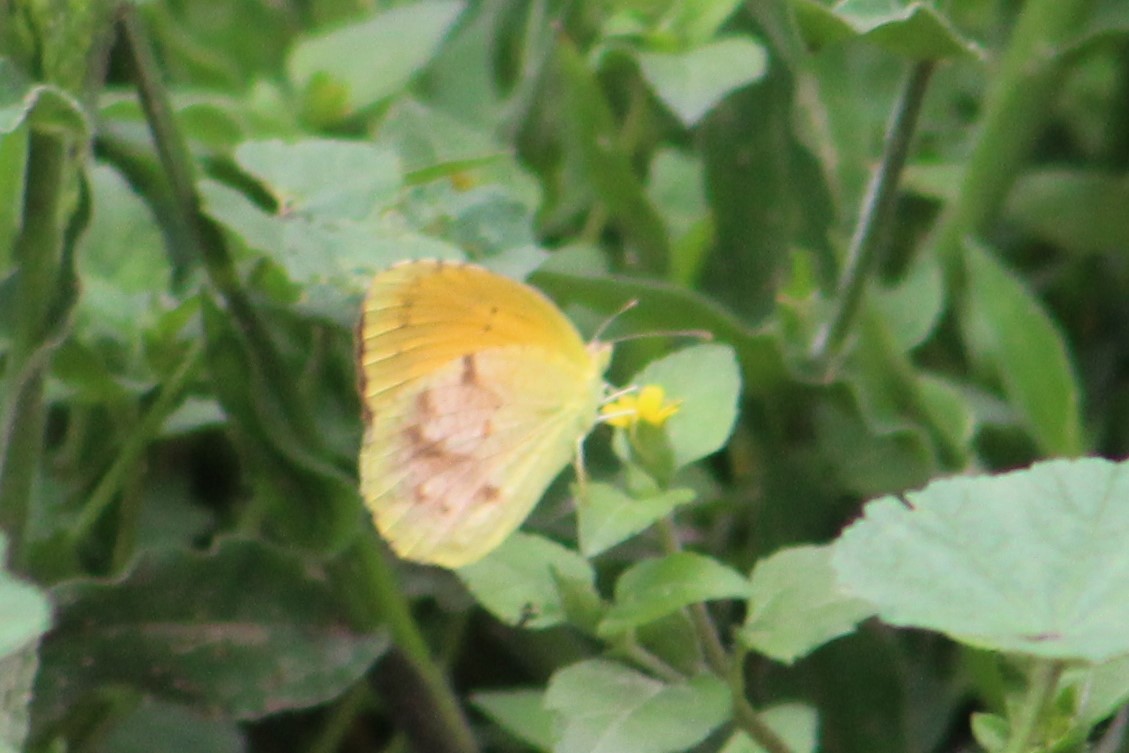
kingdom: Animalia
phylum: Arthropoda
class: Insecta
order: Lepidoptera
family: Pieridae
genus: Abaeis
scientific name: Abaeis nicippe
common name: Sleepy orange
